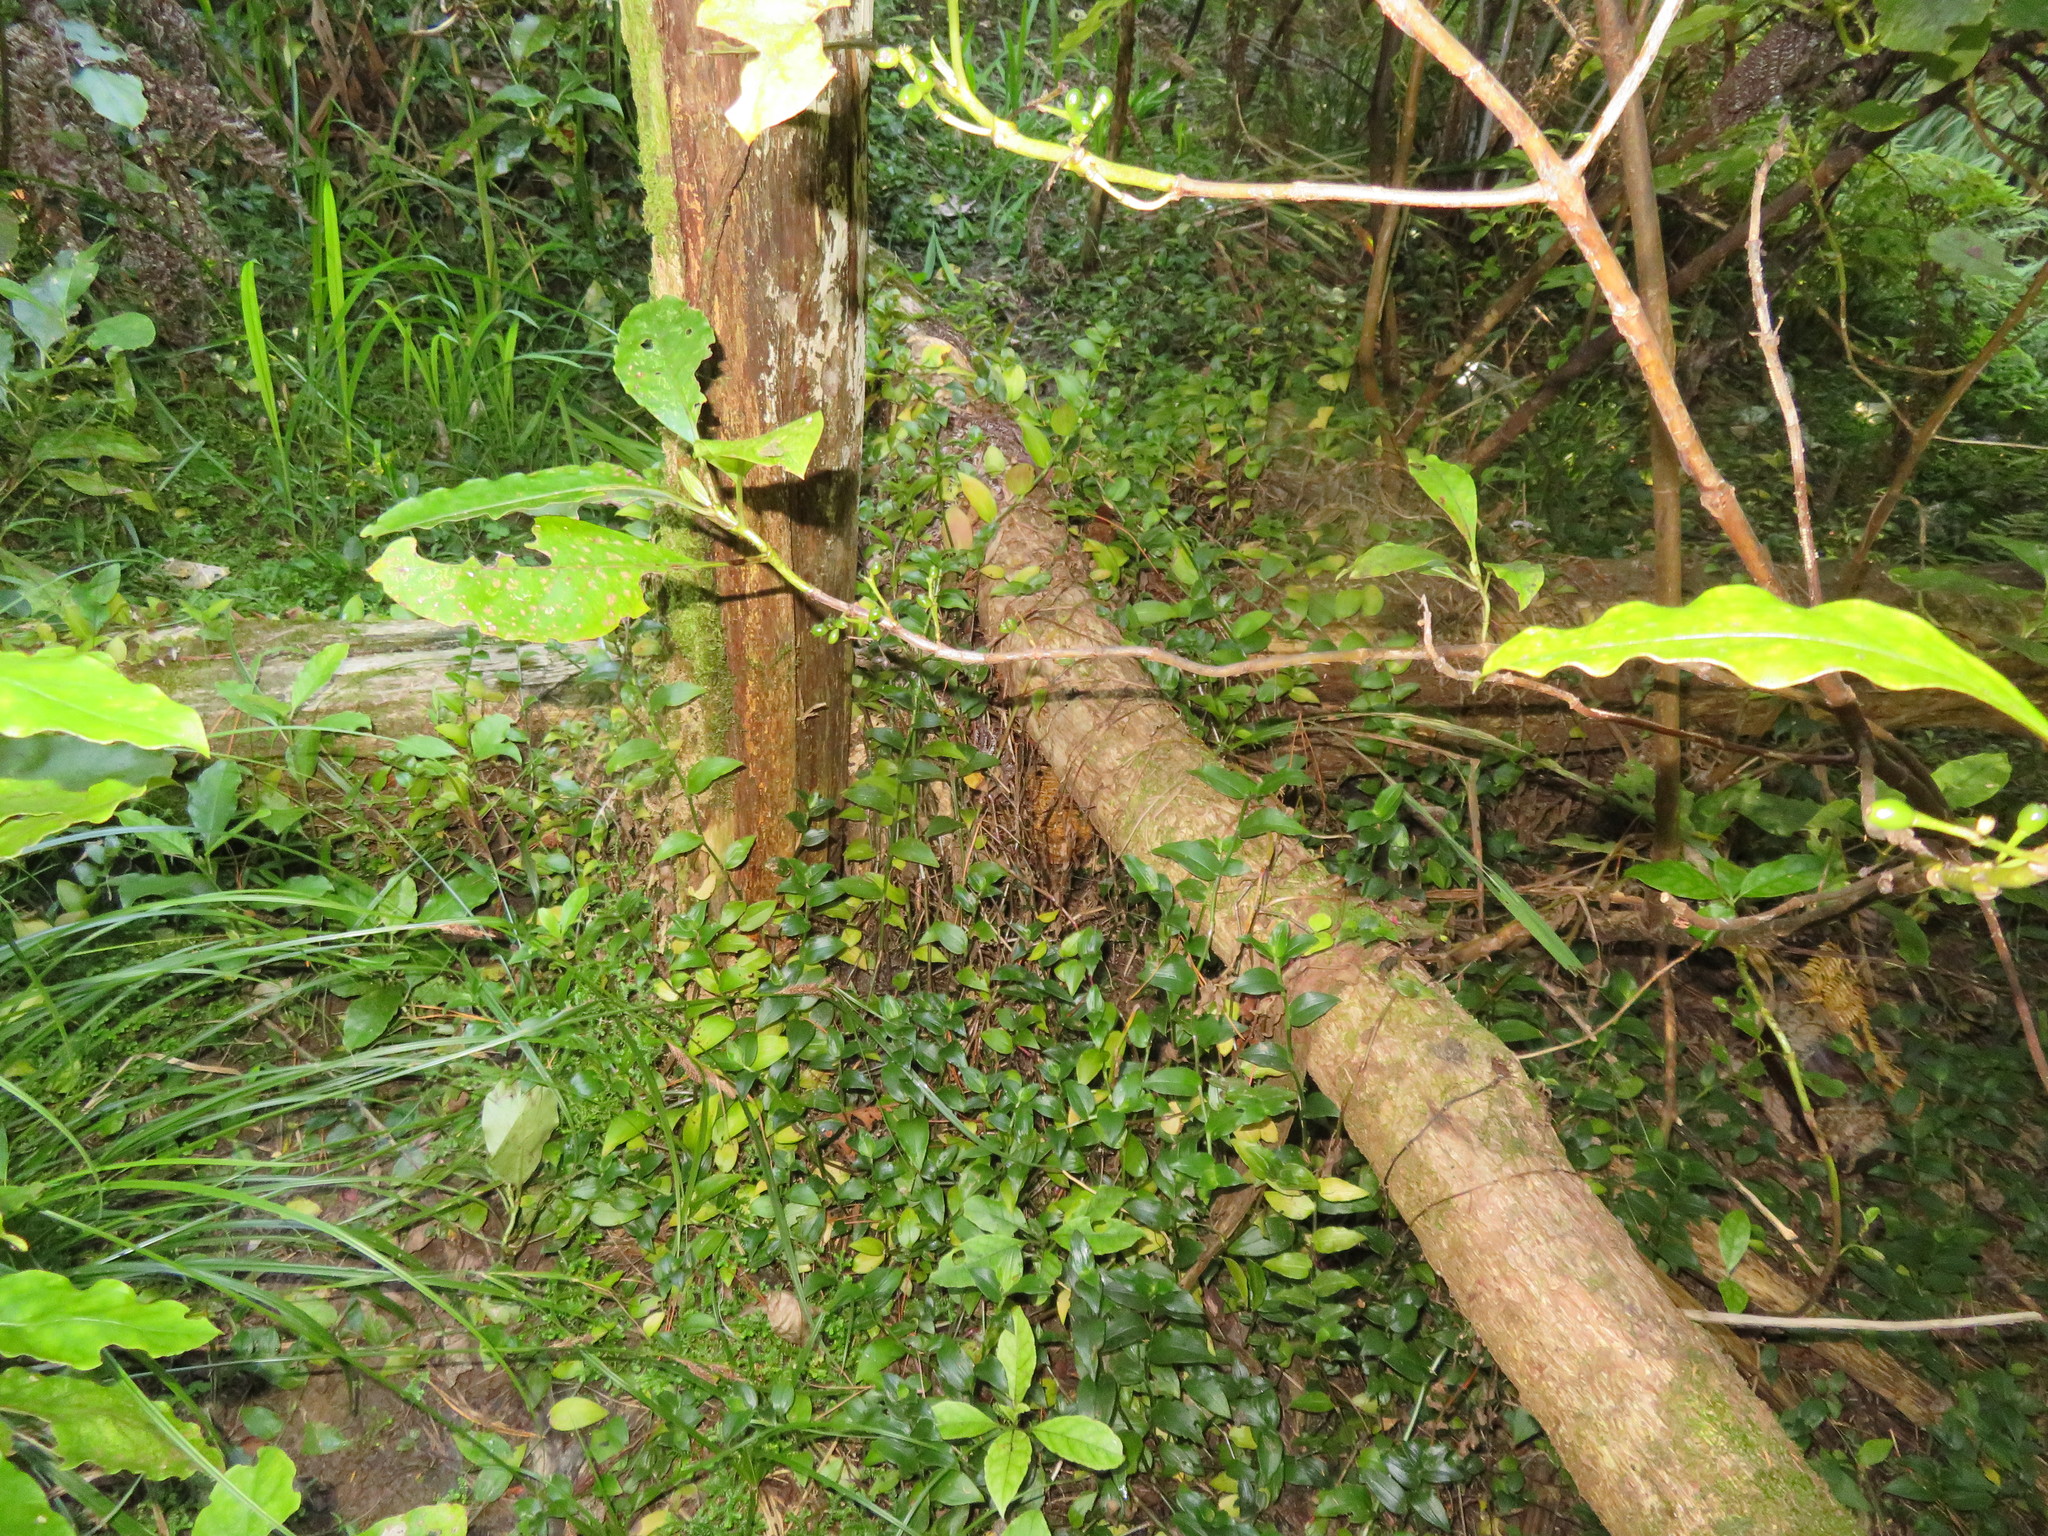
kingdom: Plantae
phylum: Tracheophyta
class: Liliopsida
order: Commelinales
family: Commelinaceae
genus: Tradescantia
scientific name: Tradescantia fluminensis
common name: Wandering-jew
